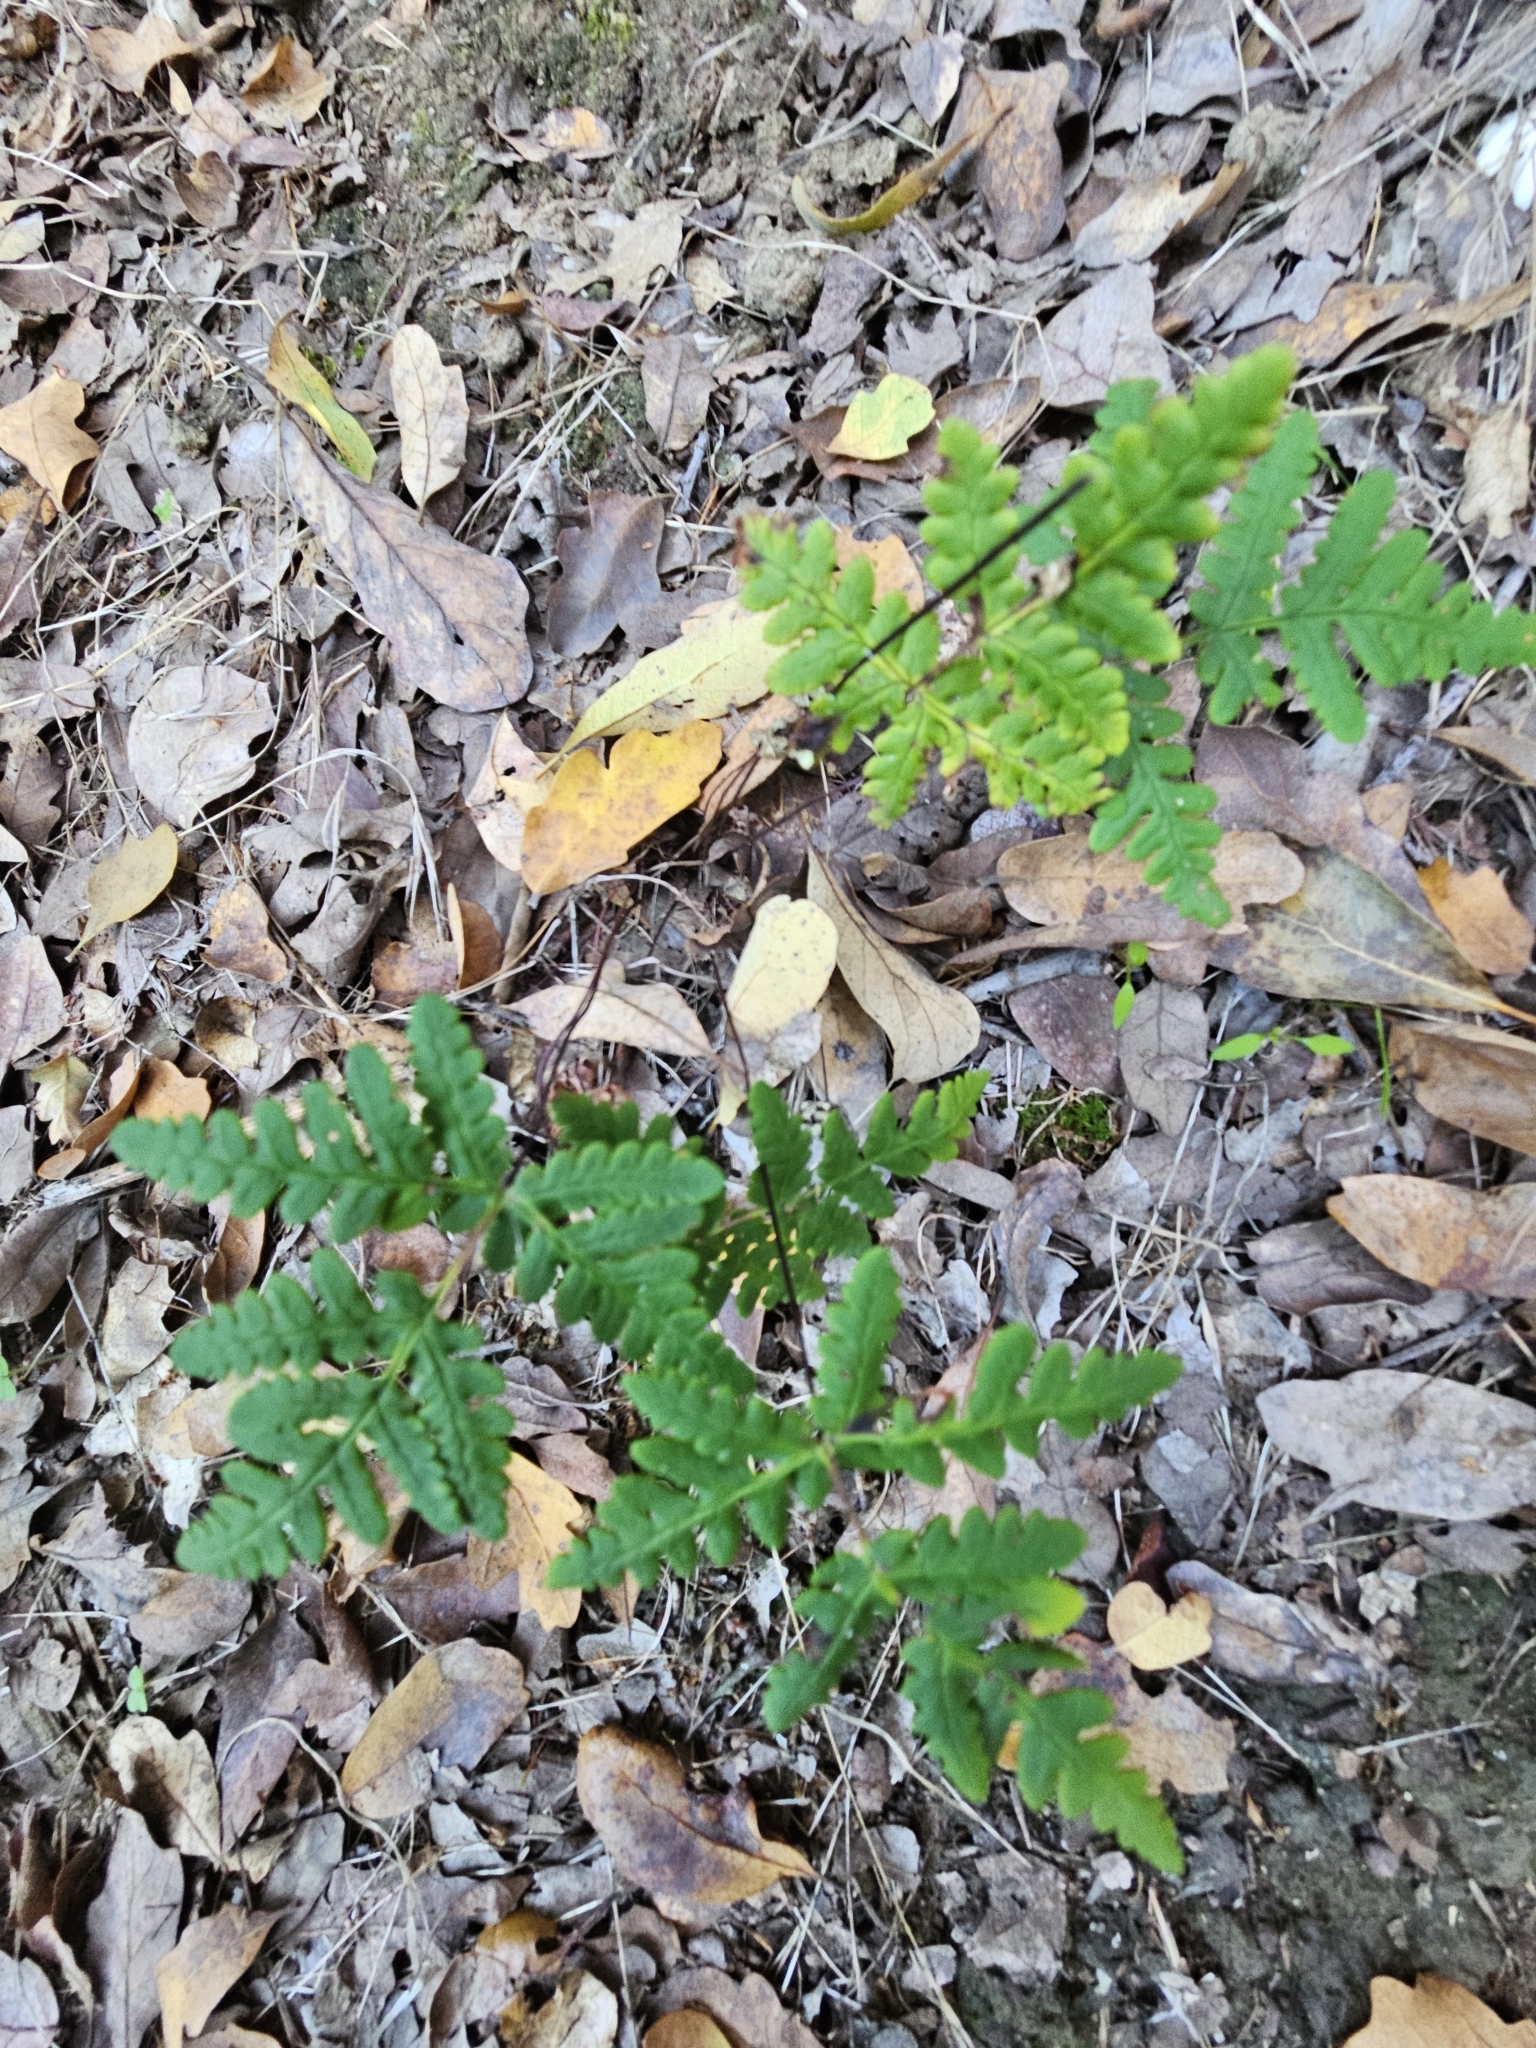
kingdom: Plantae
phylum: Tracheophyta
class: Polypodiopsida
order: Polypodiales
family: Pteridaceae
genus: Pentagramma
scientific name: Pentagramma triangularis
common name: Gold fern
